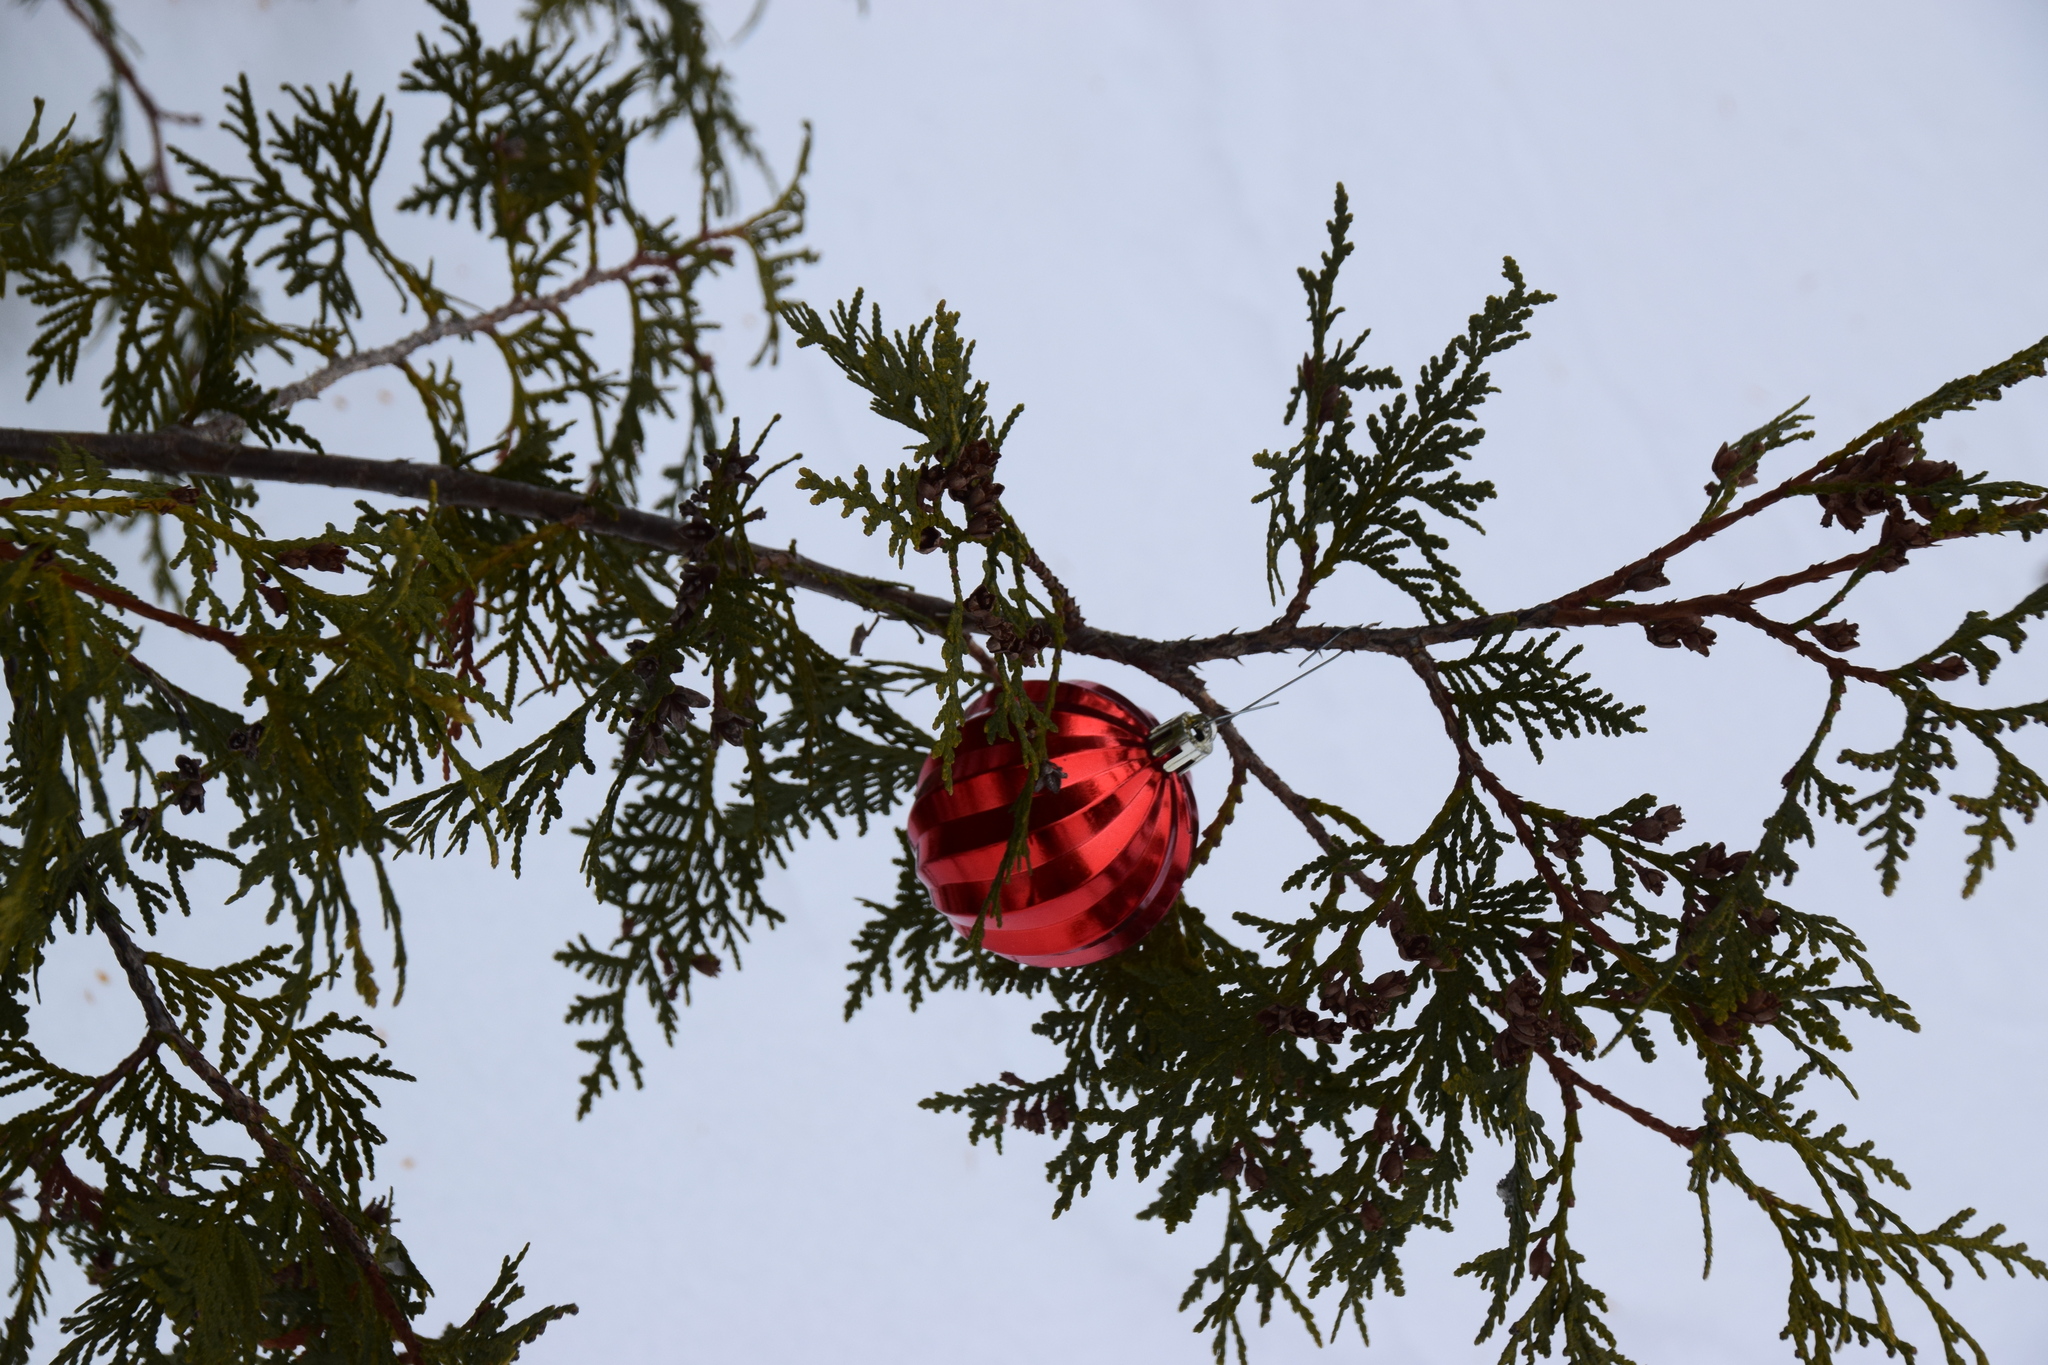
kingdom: Plantae
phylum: Tracheophyta
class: Pinopsida
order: Pinales
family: Cupressaceae
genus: Thuja
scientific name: Thuja occidentalis
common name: Northern white-cedar
